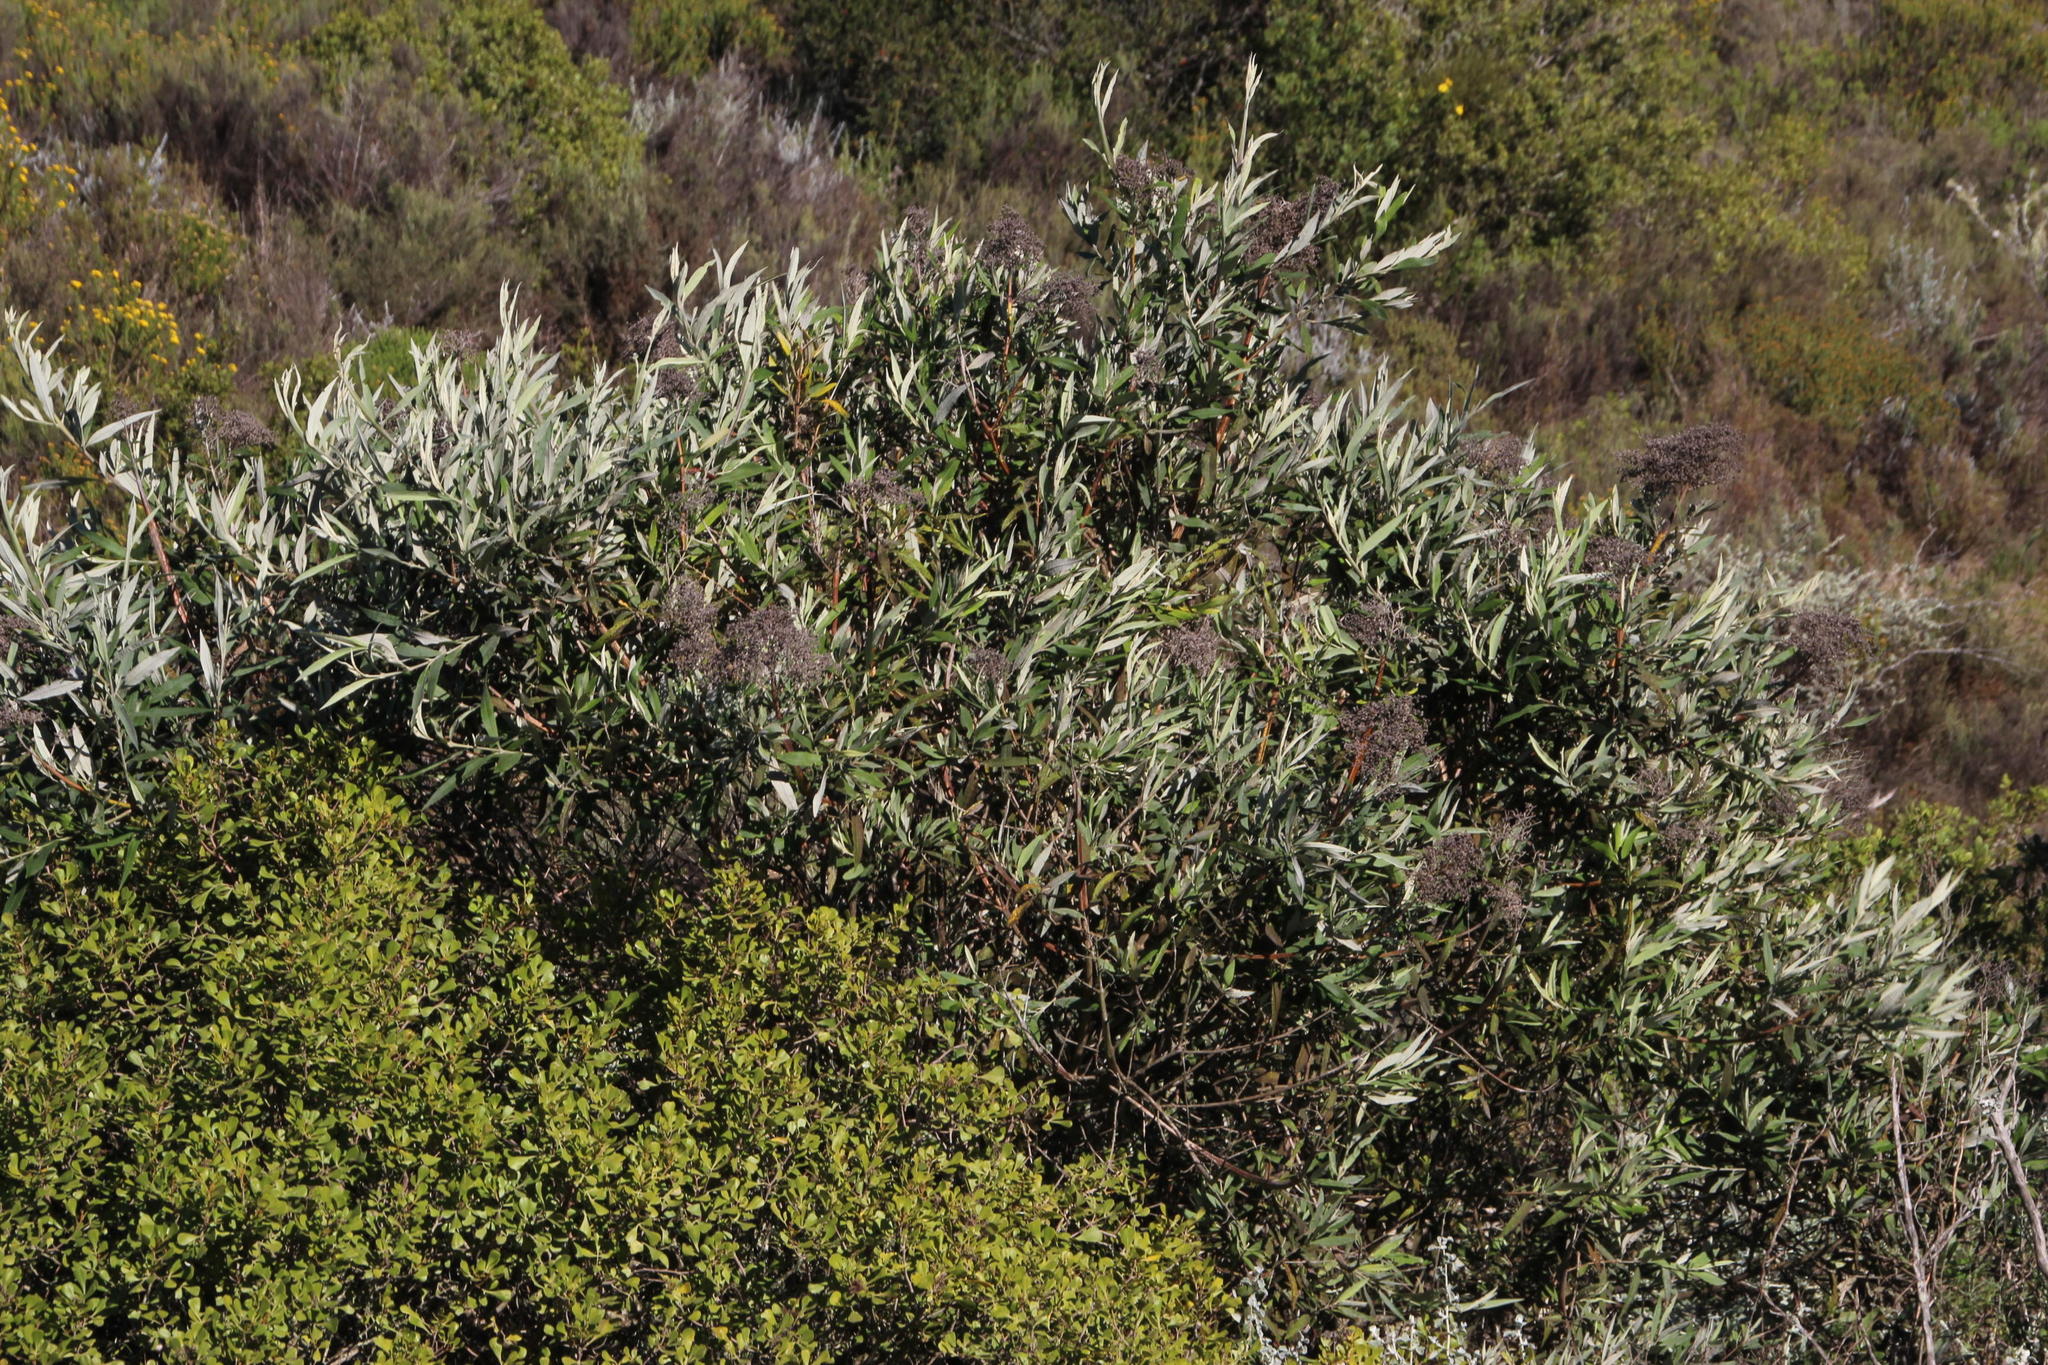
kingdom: Plantae
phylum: Tracheophyta
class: Magnoliopsida
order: Lamiales
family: Scrophulariaceae
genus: Buddleja
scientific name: Buddleja saligna
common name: False olive
